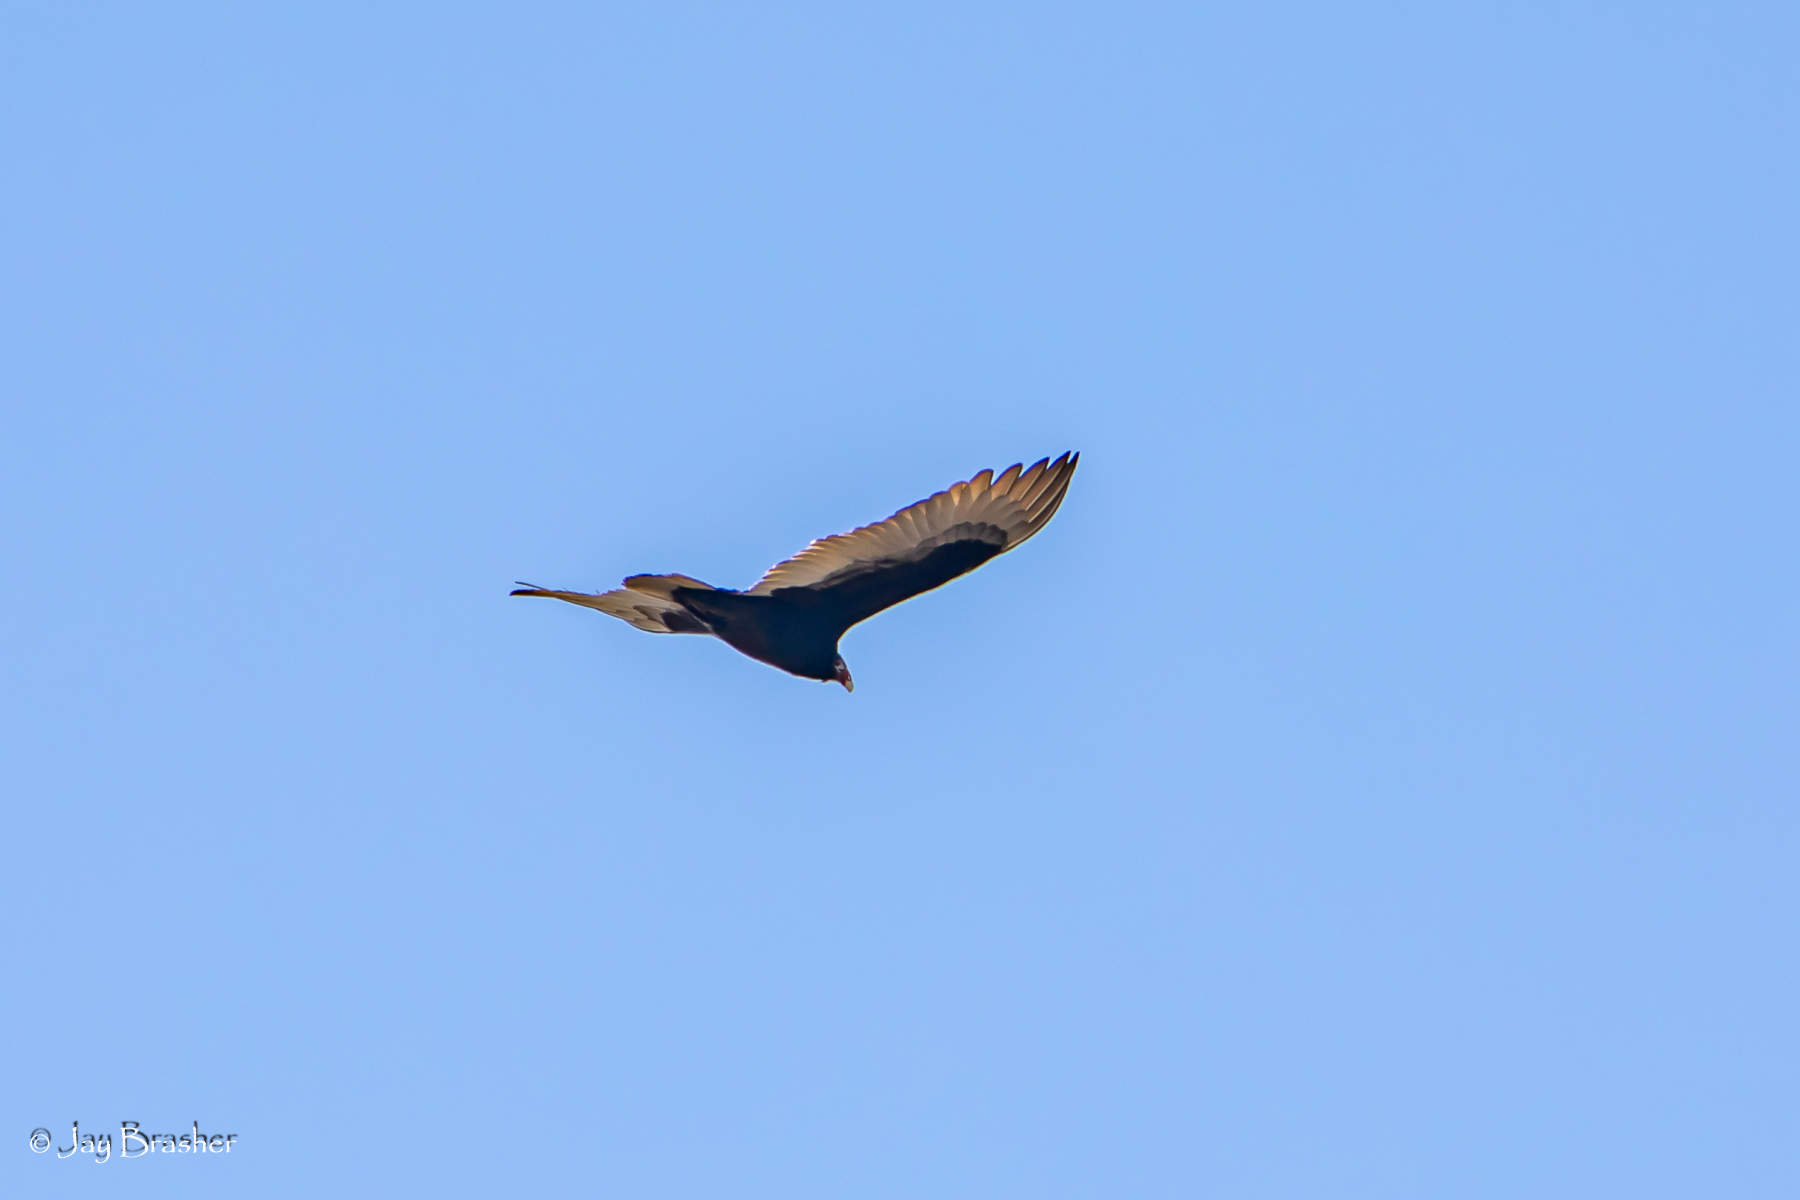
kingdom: Animalia
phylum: Chordata
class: Aves
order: Accipitriformes
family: Cathartidae
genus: Cathartes
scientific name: Cathartes aura
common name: Turkey vulture
